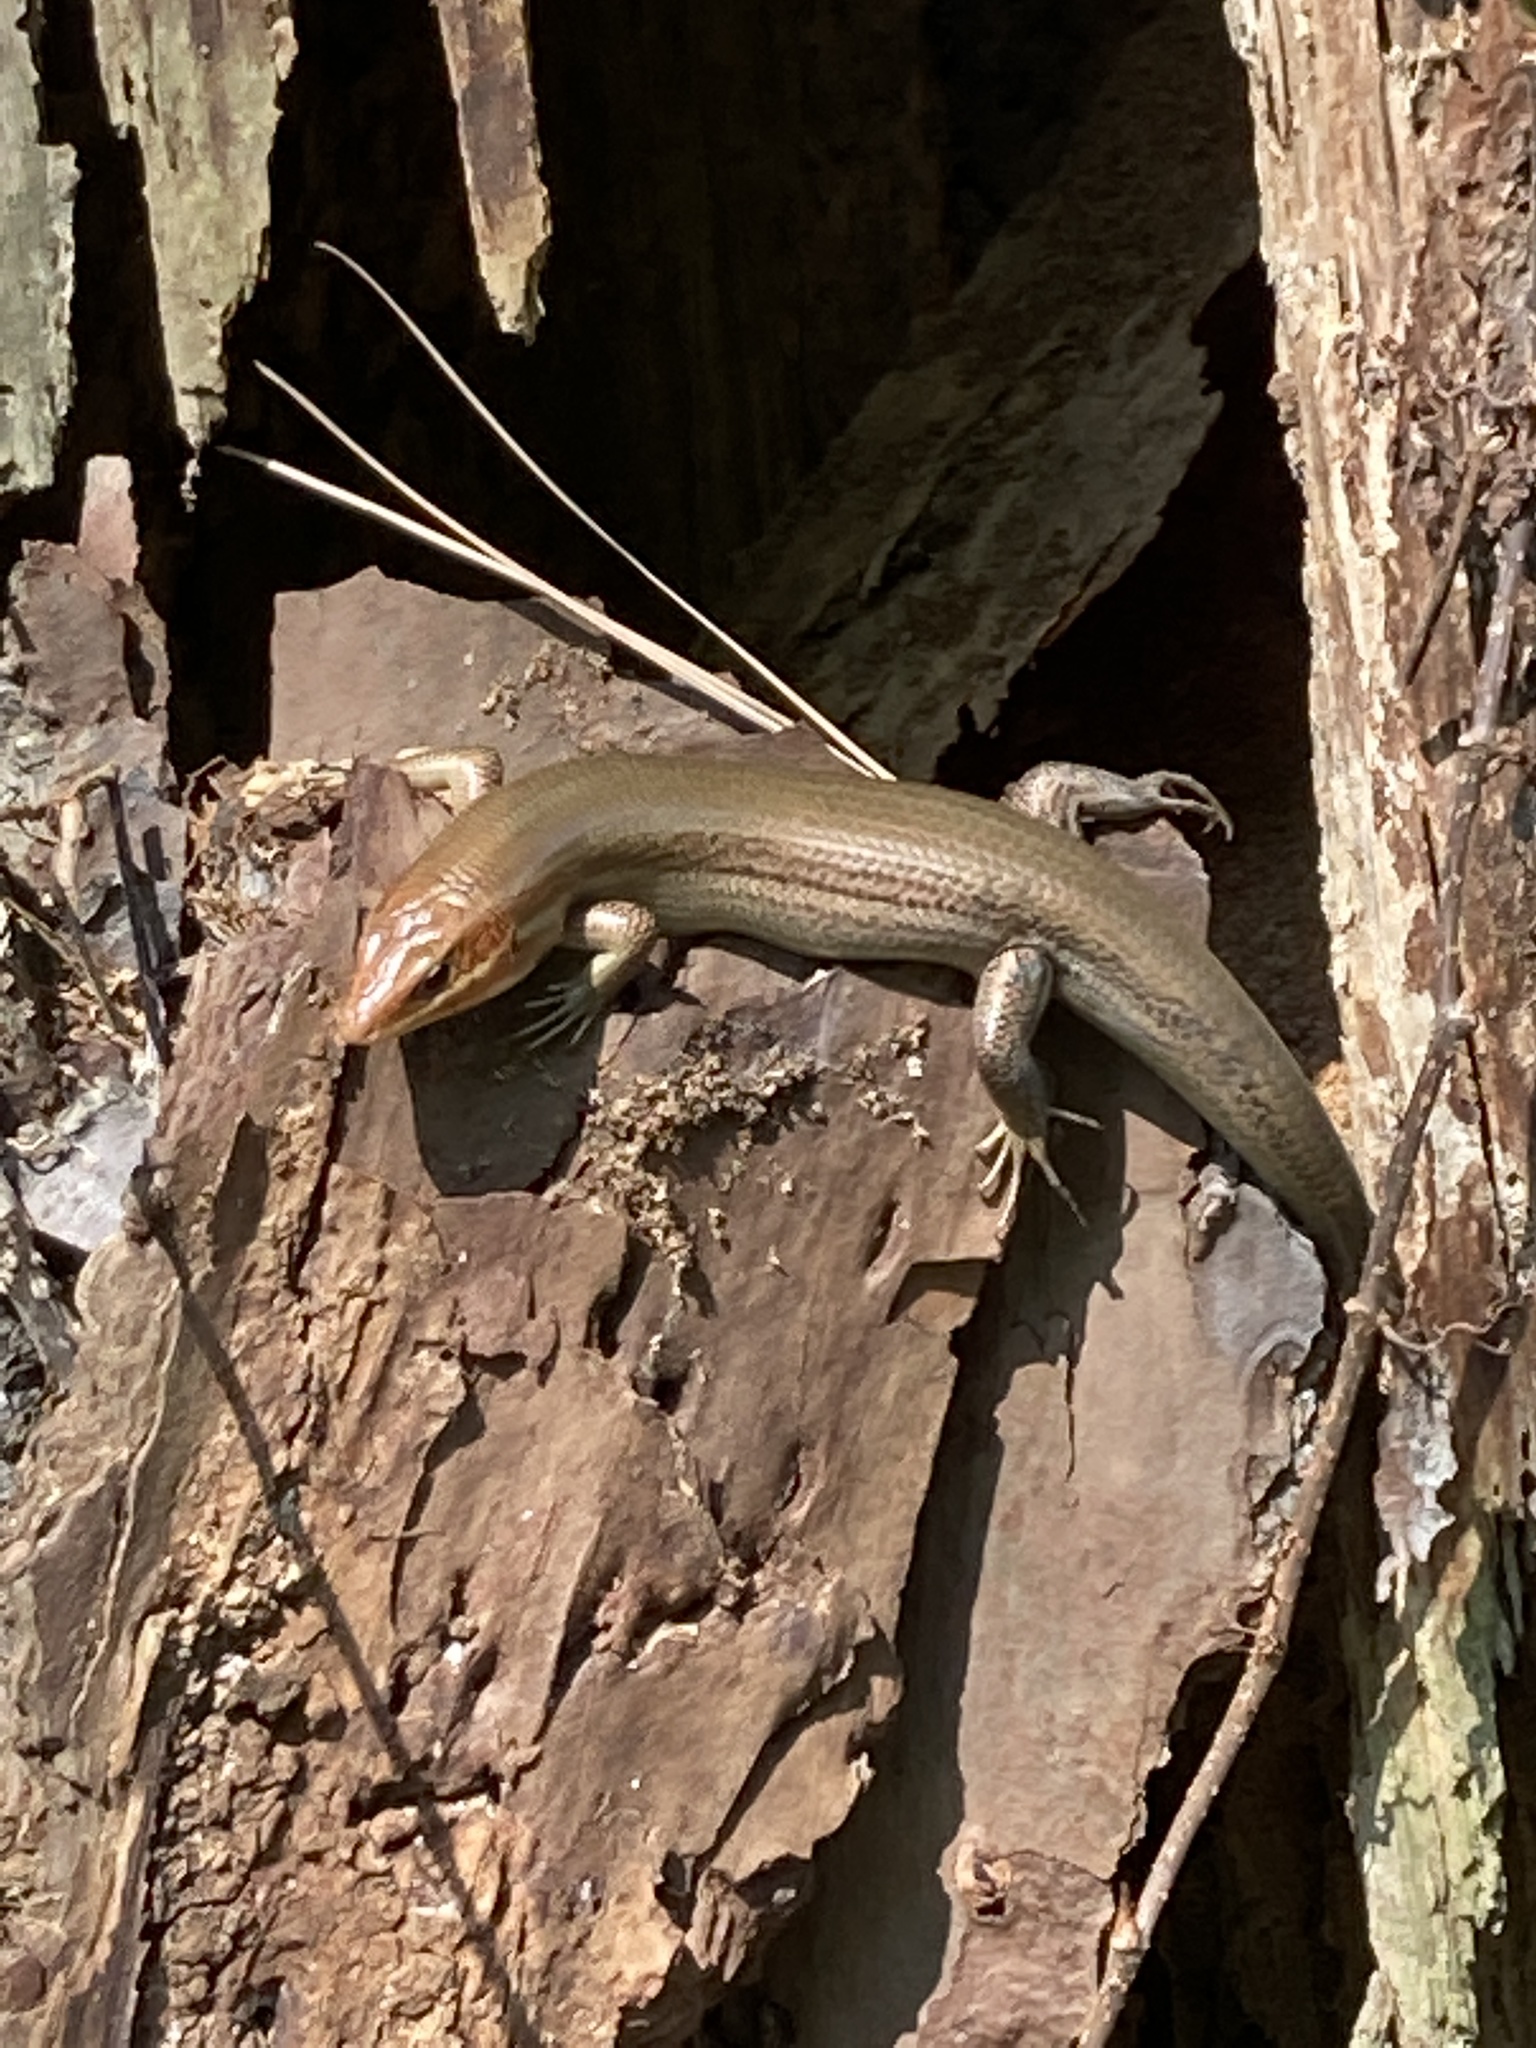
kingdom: Animalia
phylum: Chordata
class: Squamata
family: Scincidae
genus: Plestiodon
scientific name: Plestiodon laticeps
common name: Broadhead skink
